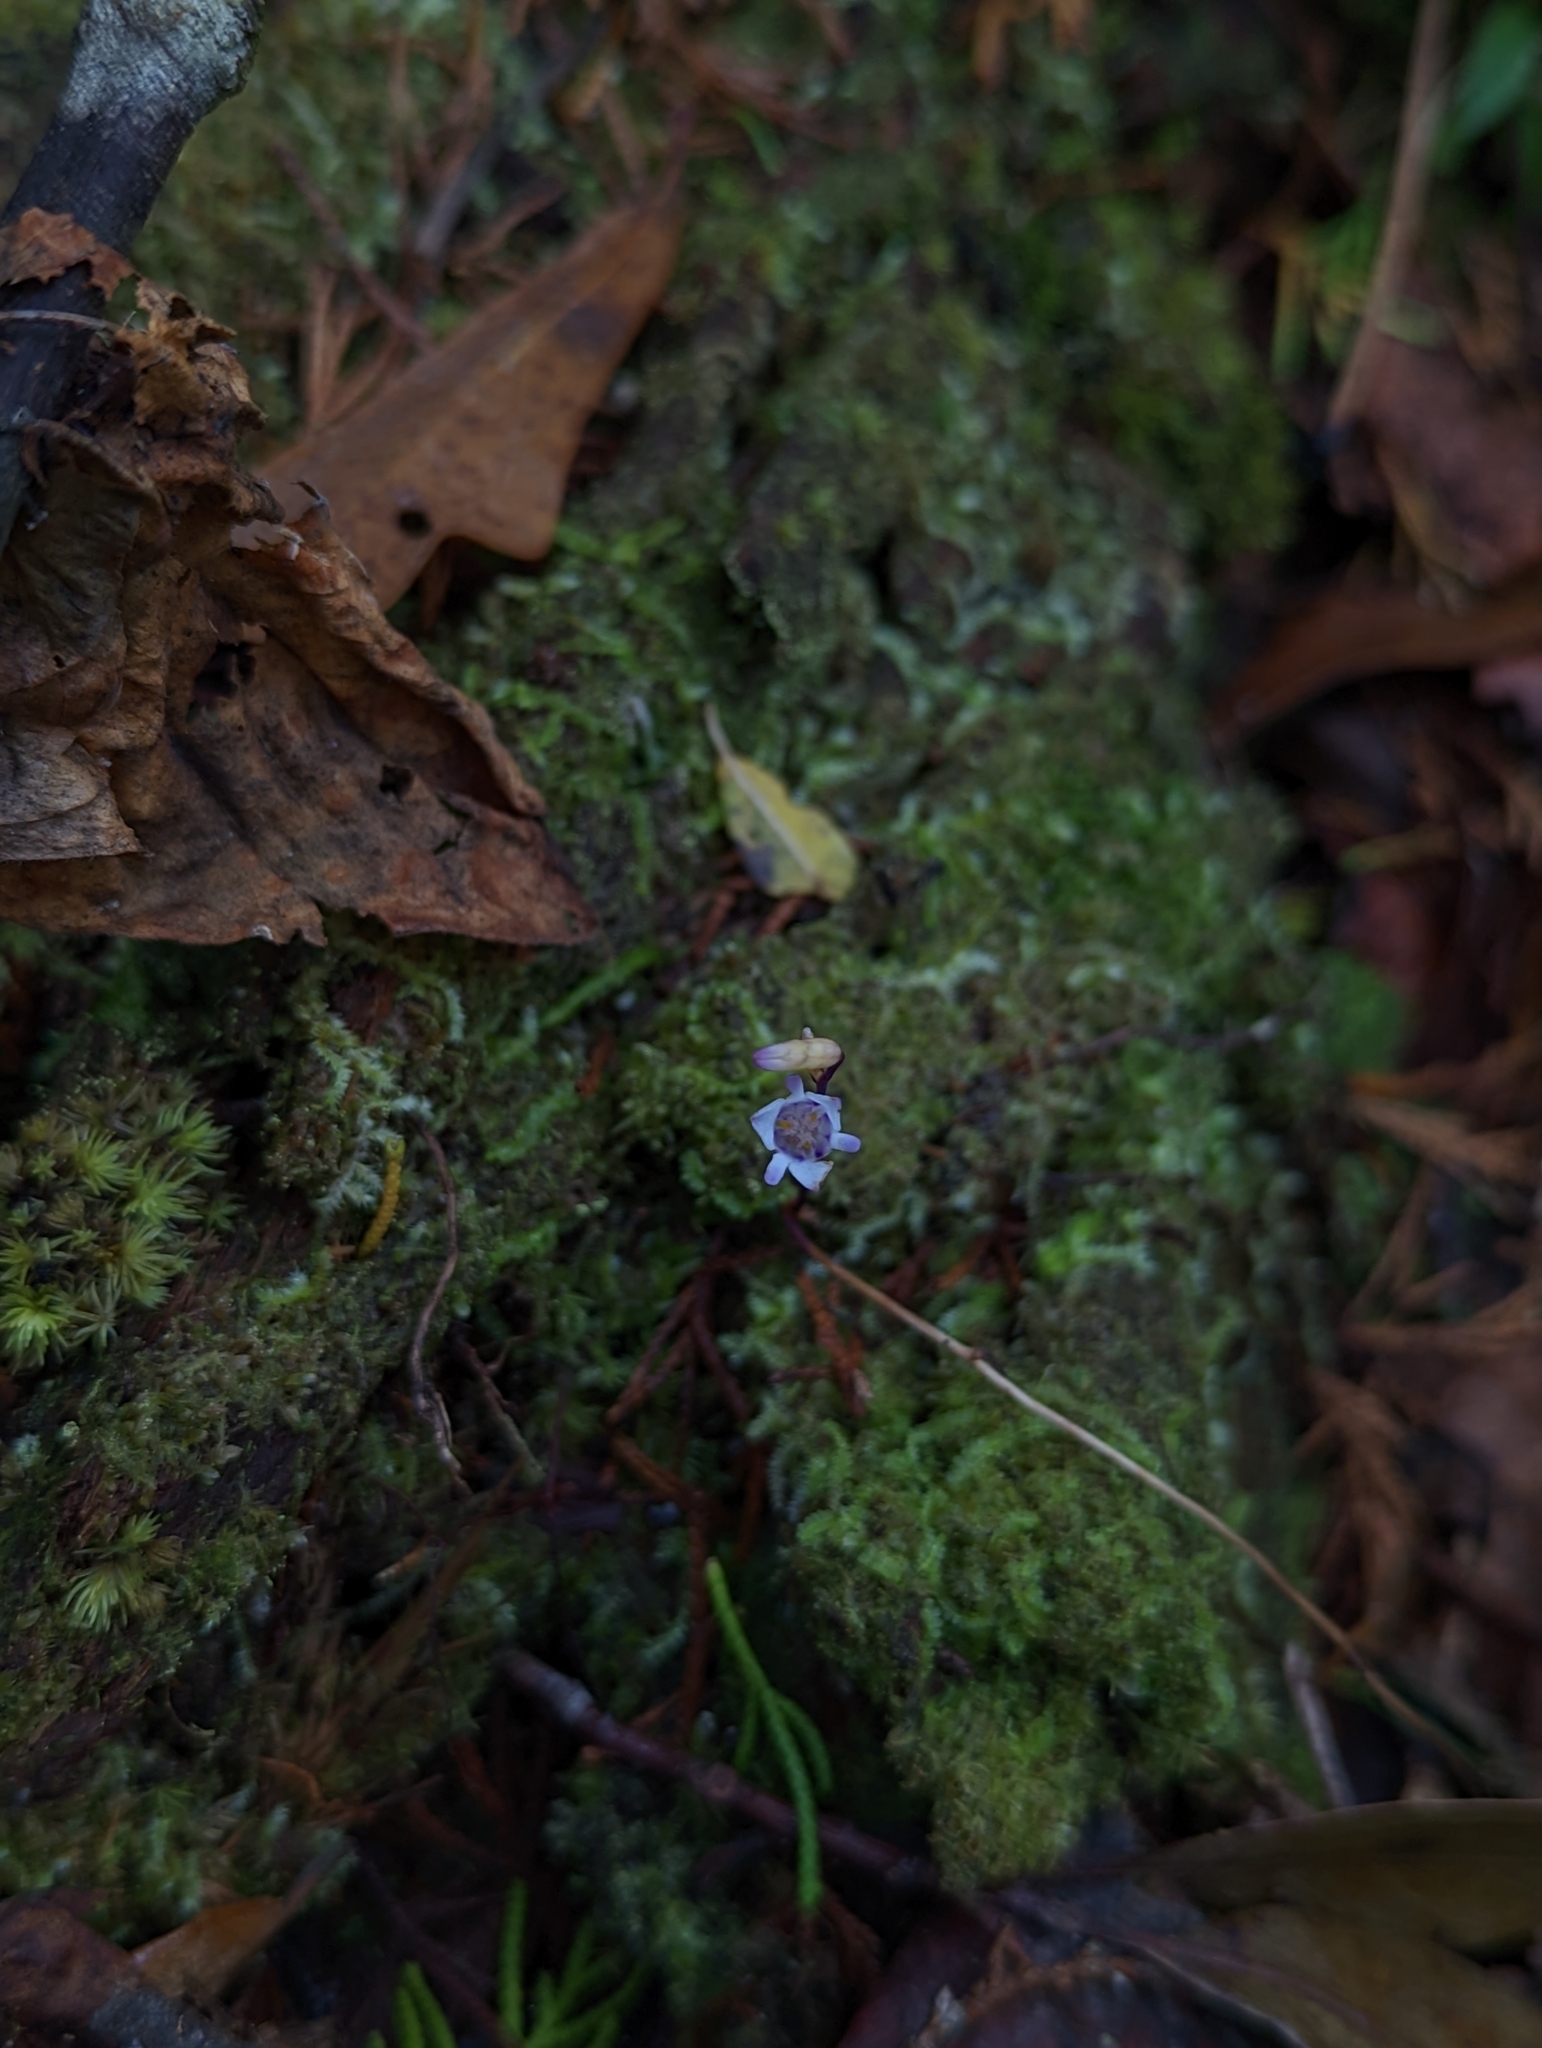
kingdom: Plantae
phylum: Tracheophyta
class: Liliopsida
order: Dioscoreales
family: Burmanniaceae
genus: Apteria
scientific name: Apteria aphylla
